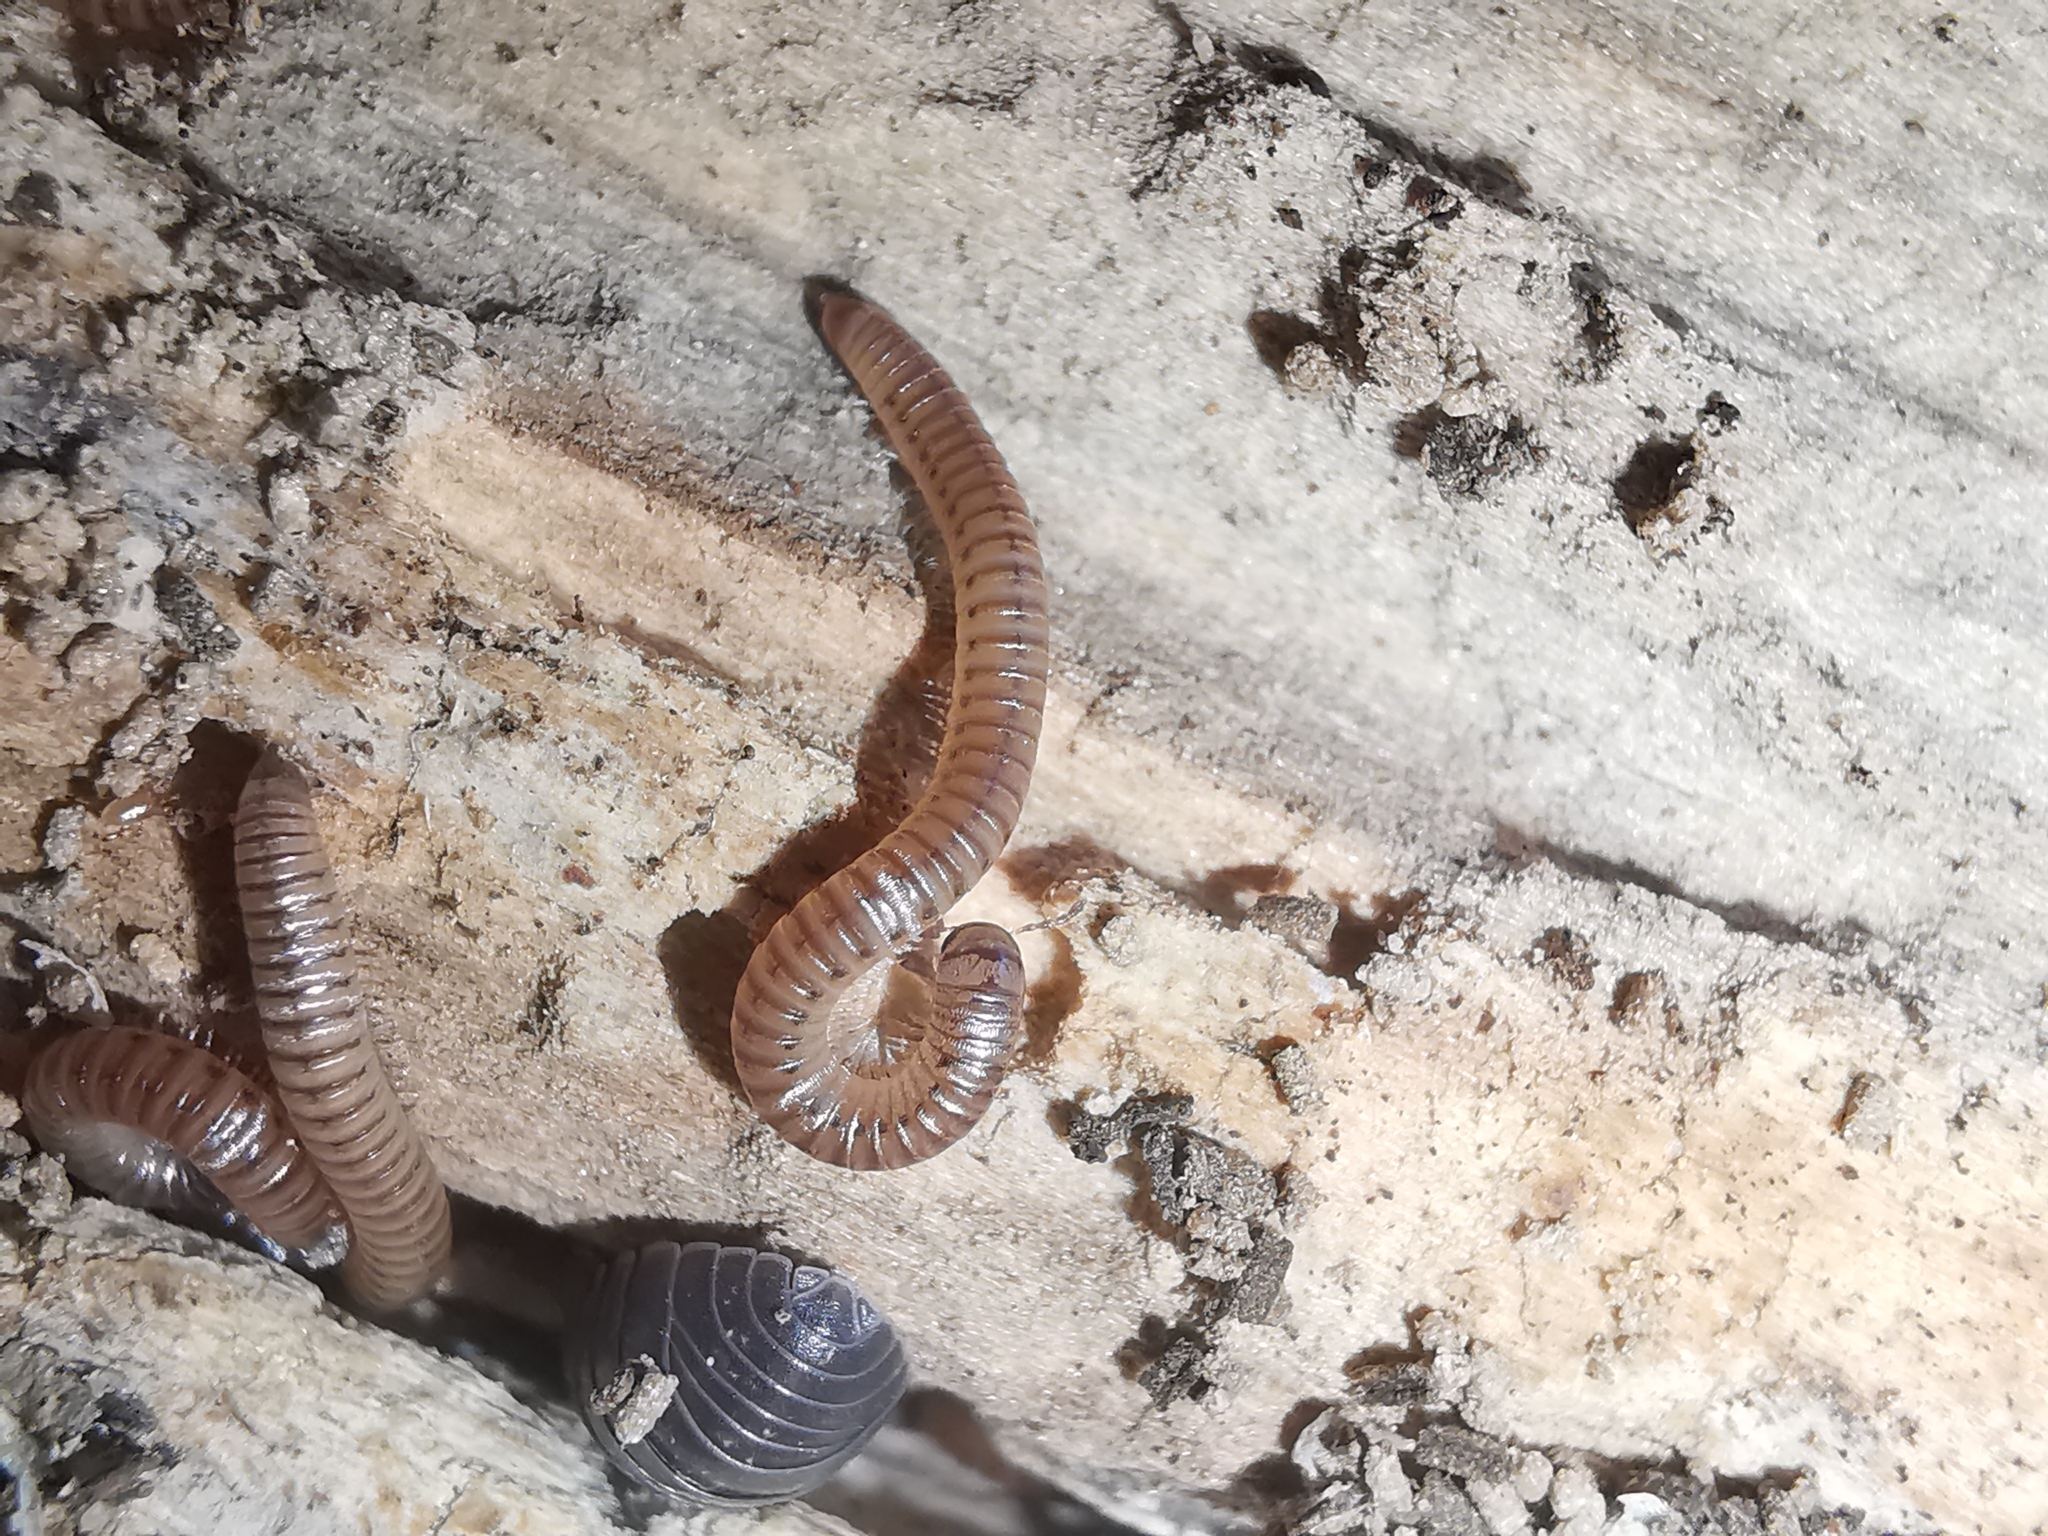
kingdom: Animalia
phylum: Arthropoda
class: Diplopoda
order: Julida
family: Julidae
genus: Cylindroiulus
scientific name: Cylindroiulus punctatus
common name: Blunt-tailed millipede
